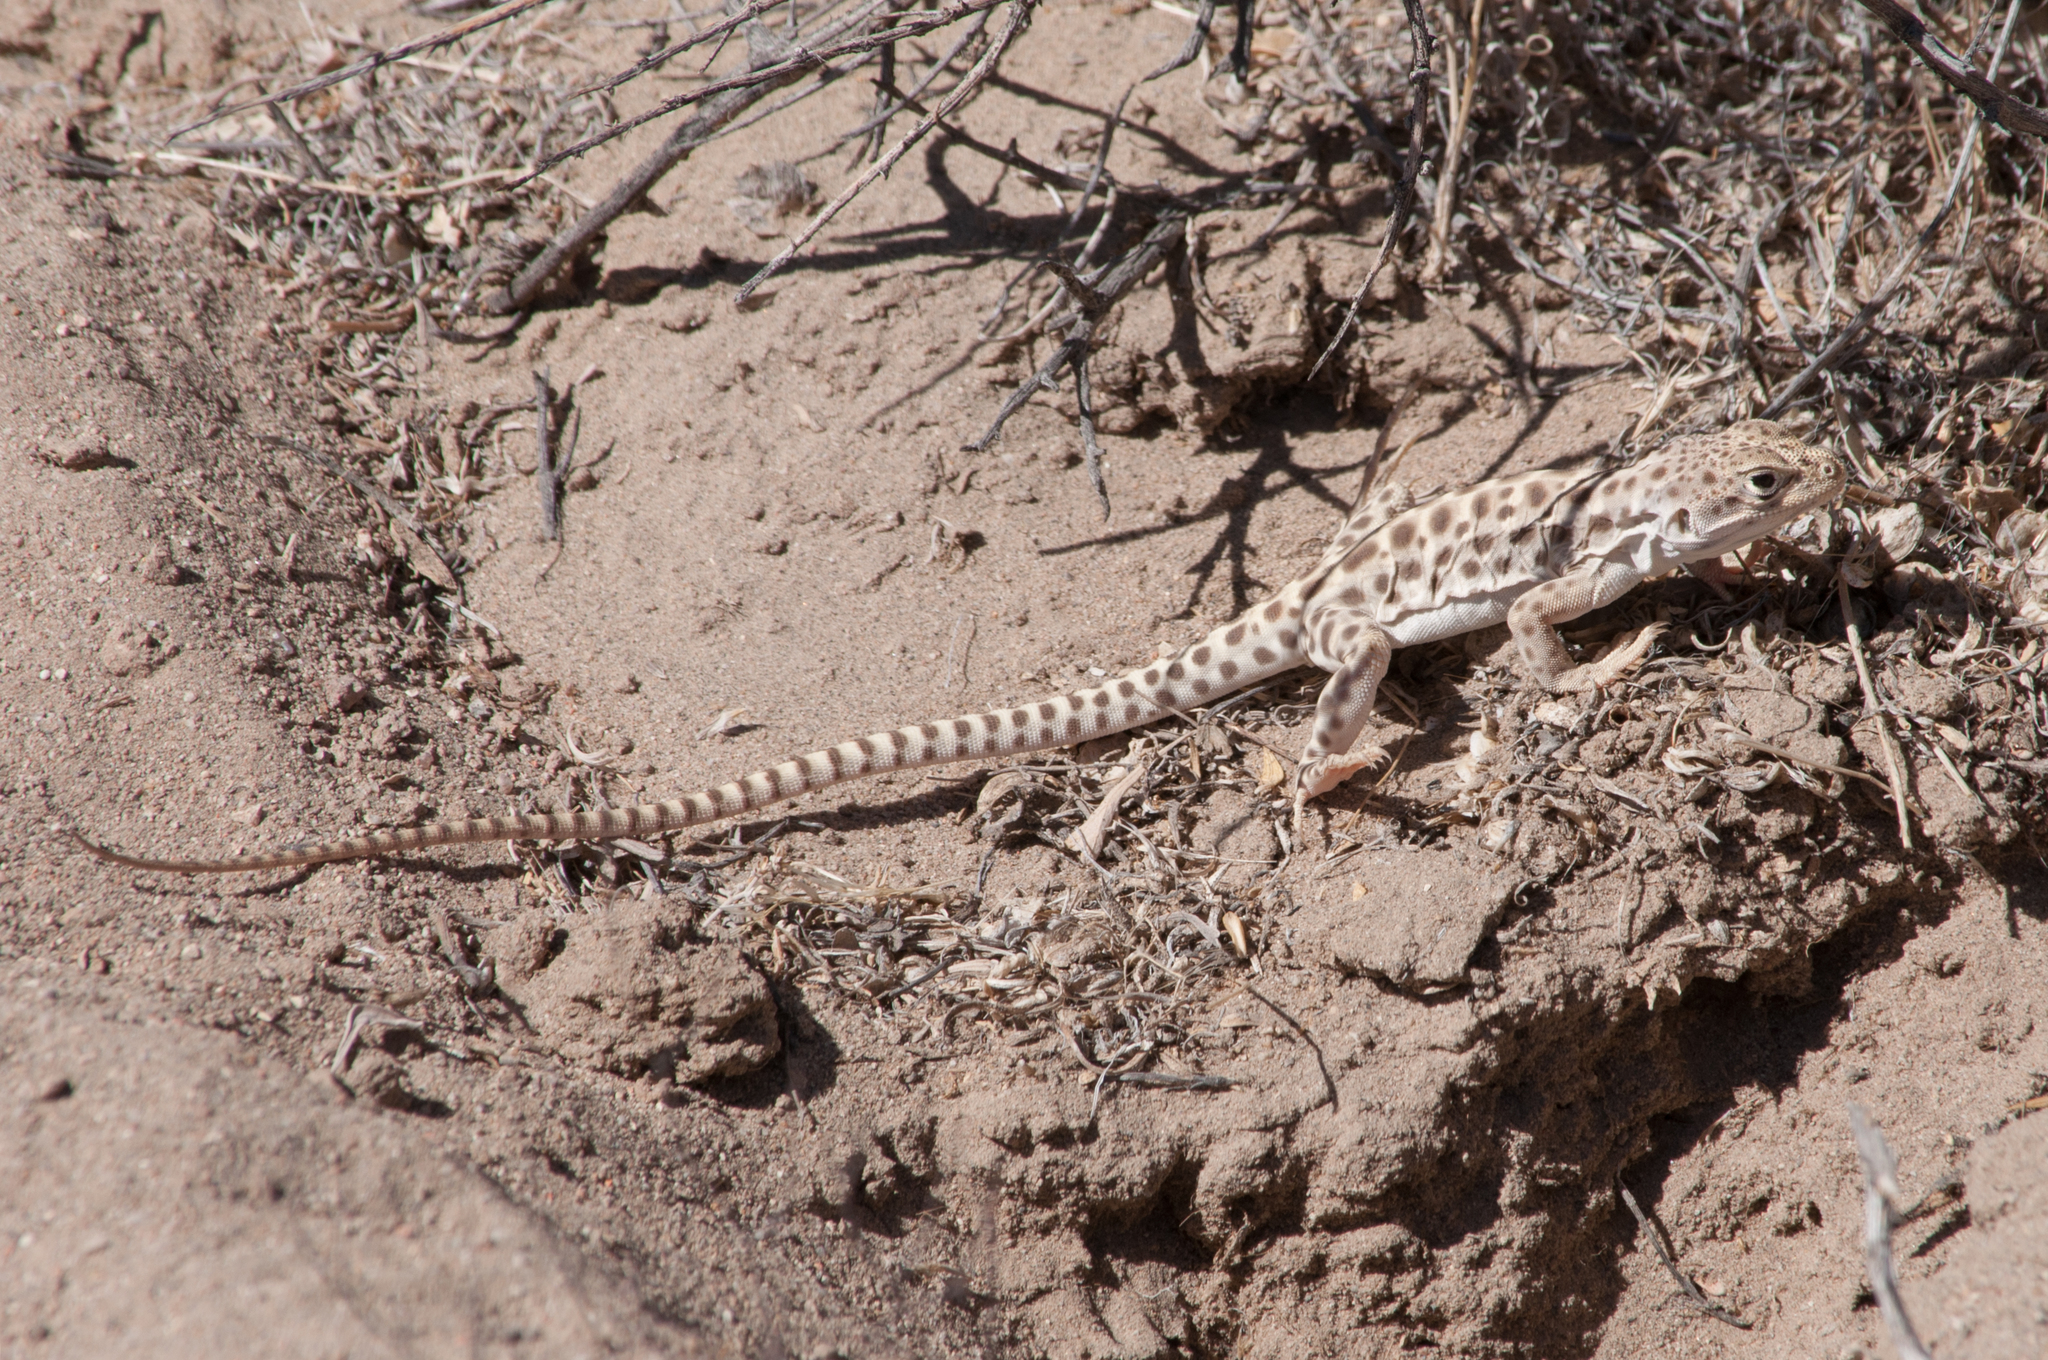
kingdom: Animalia
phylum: Chordata
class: Squamata
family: Crotaphytidae
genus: Gambelia
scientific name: Gambelia wislizenii
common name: Longnose leopard lizard
